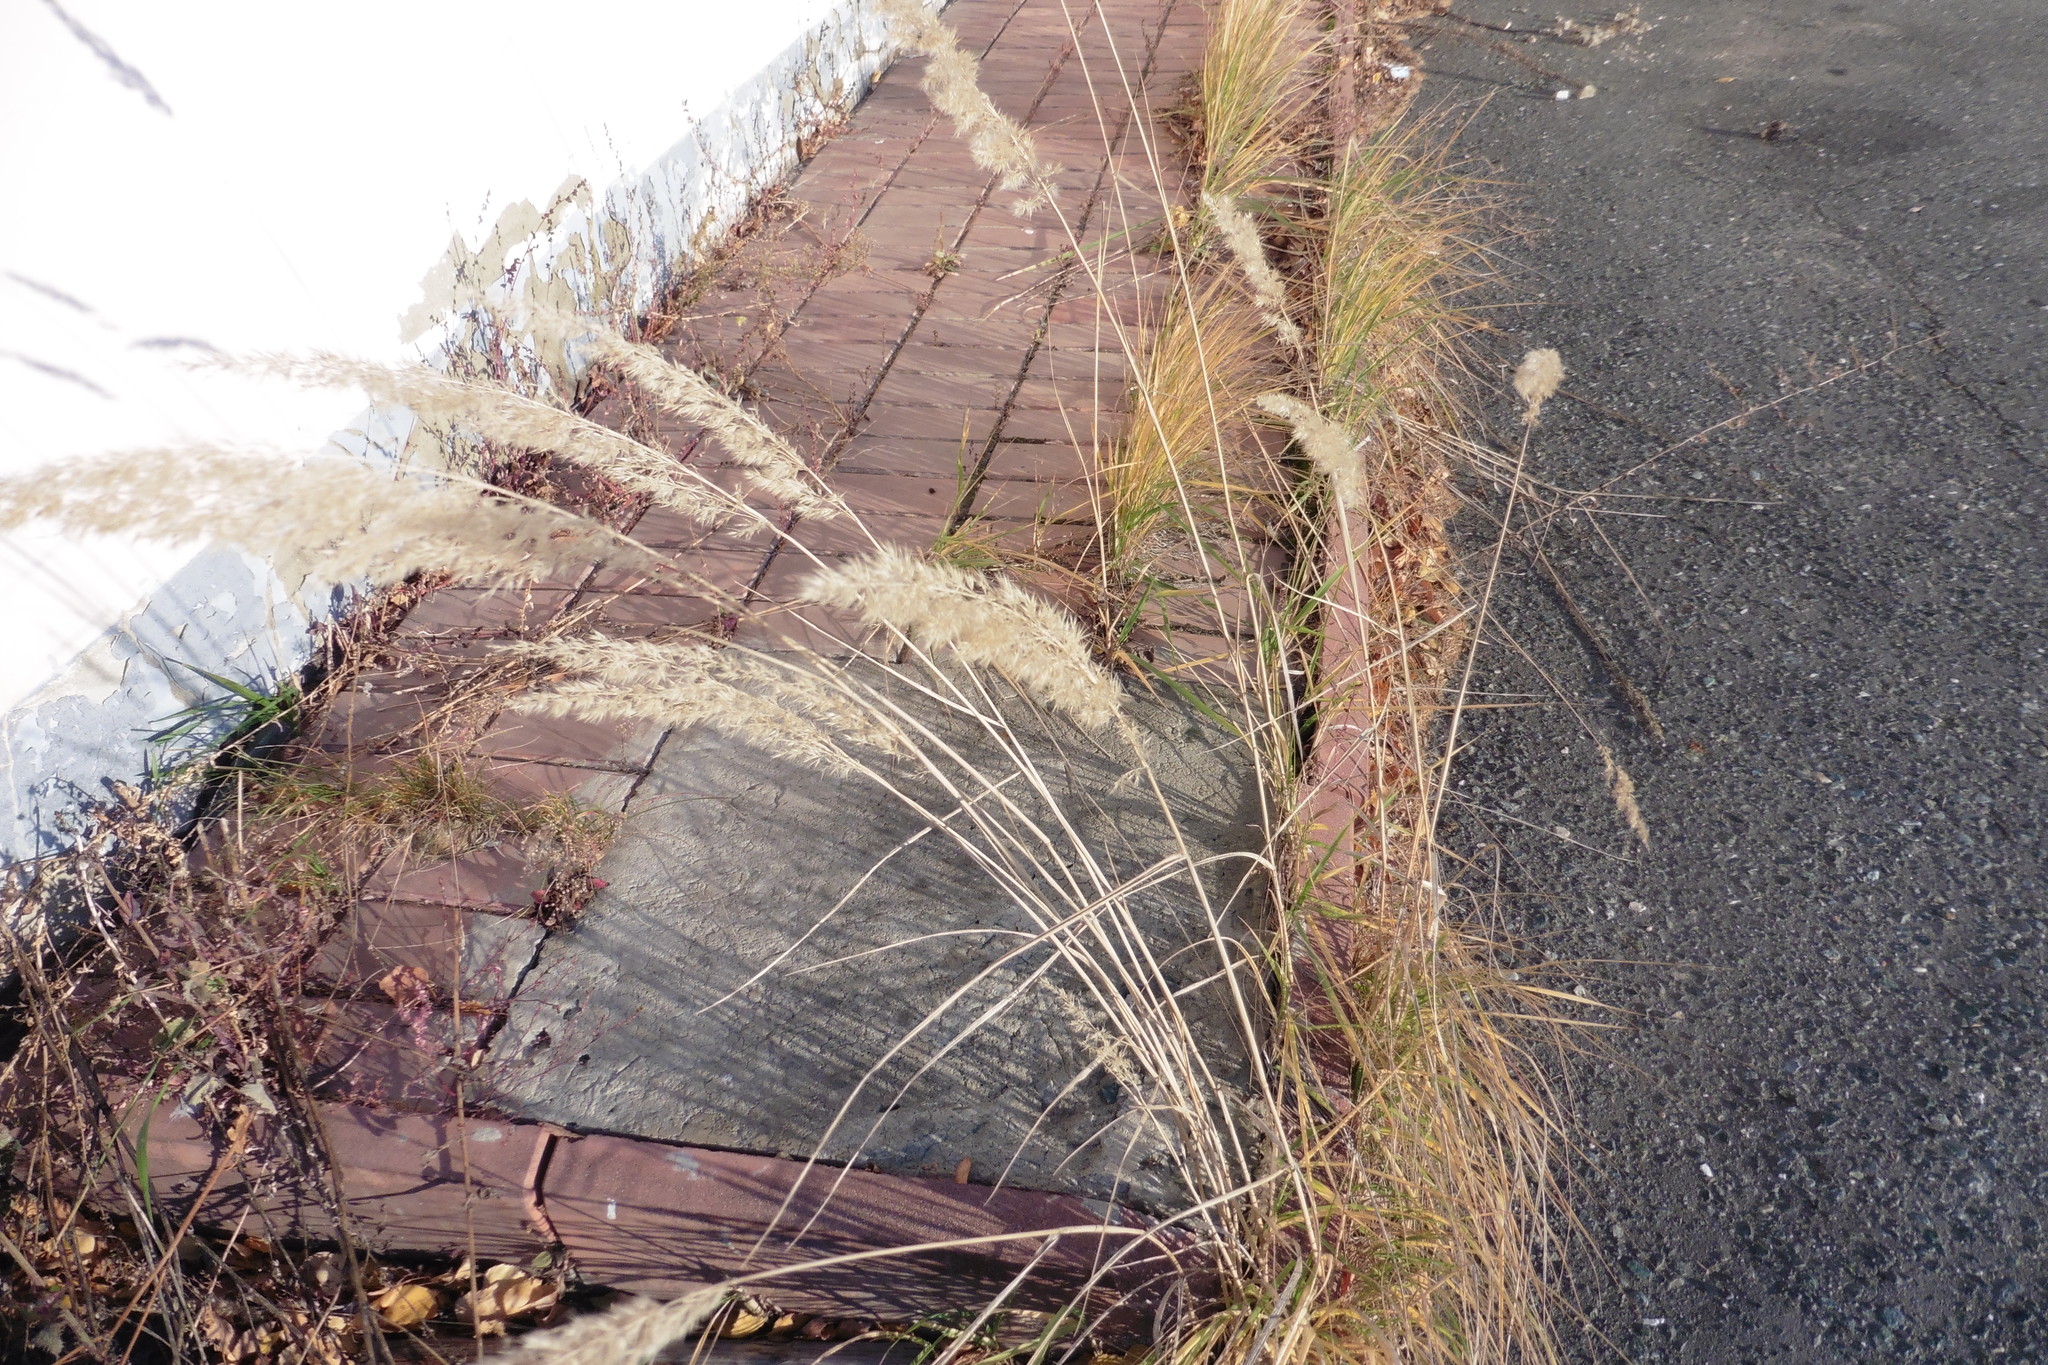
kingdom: Plantae
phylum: Tracheophyta
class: Liliopsida
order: Poales
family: Poaceae
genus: Calamagrostis
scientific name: Calamagrostis epigejos
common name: Wood small-reed
